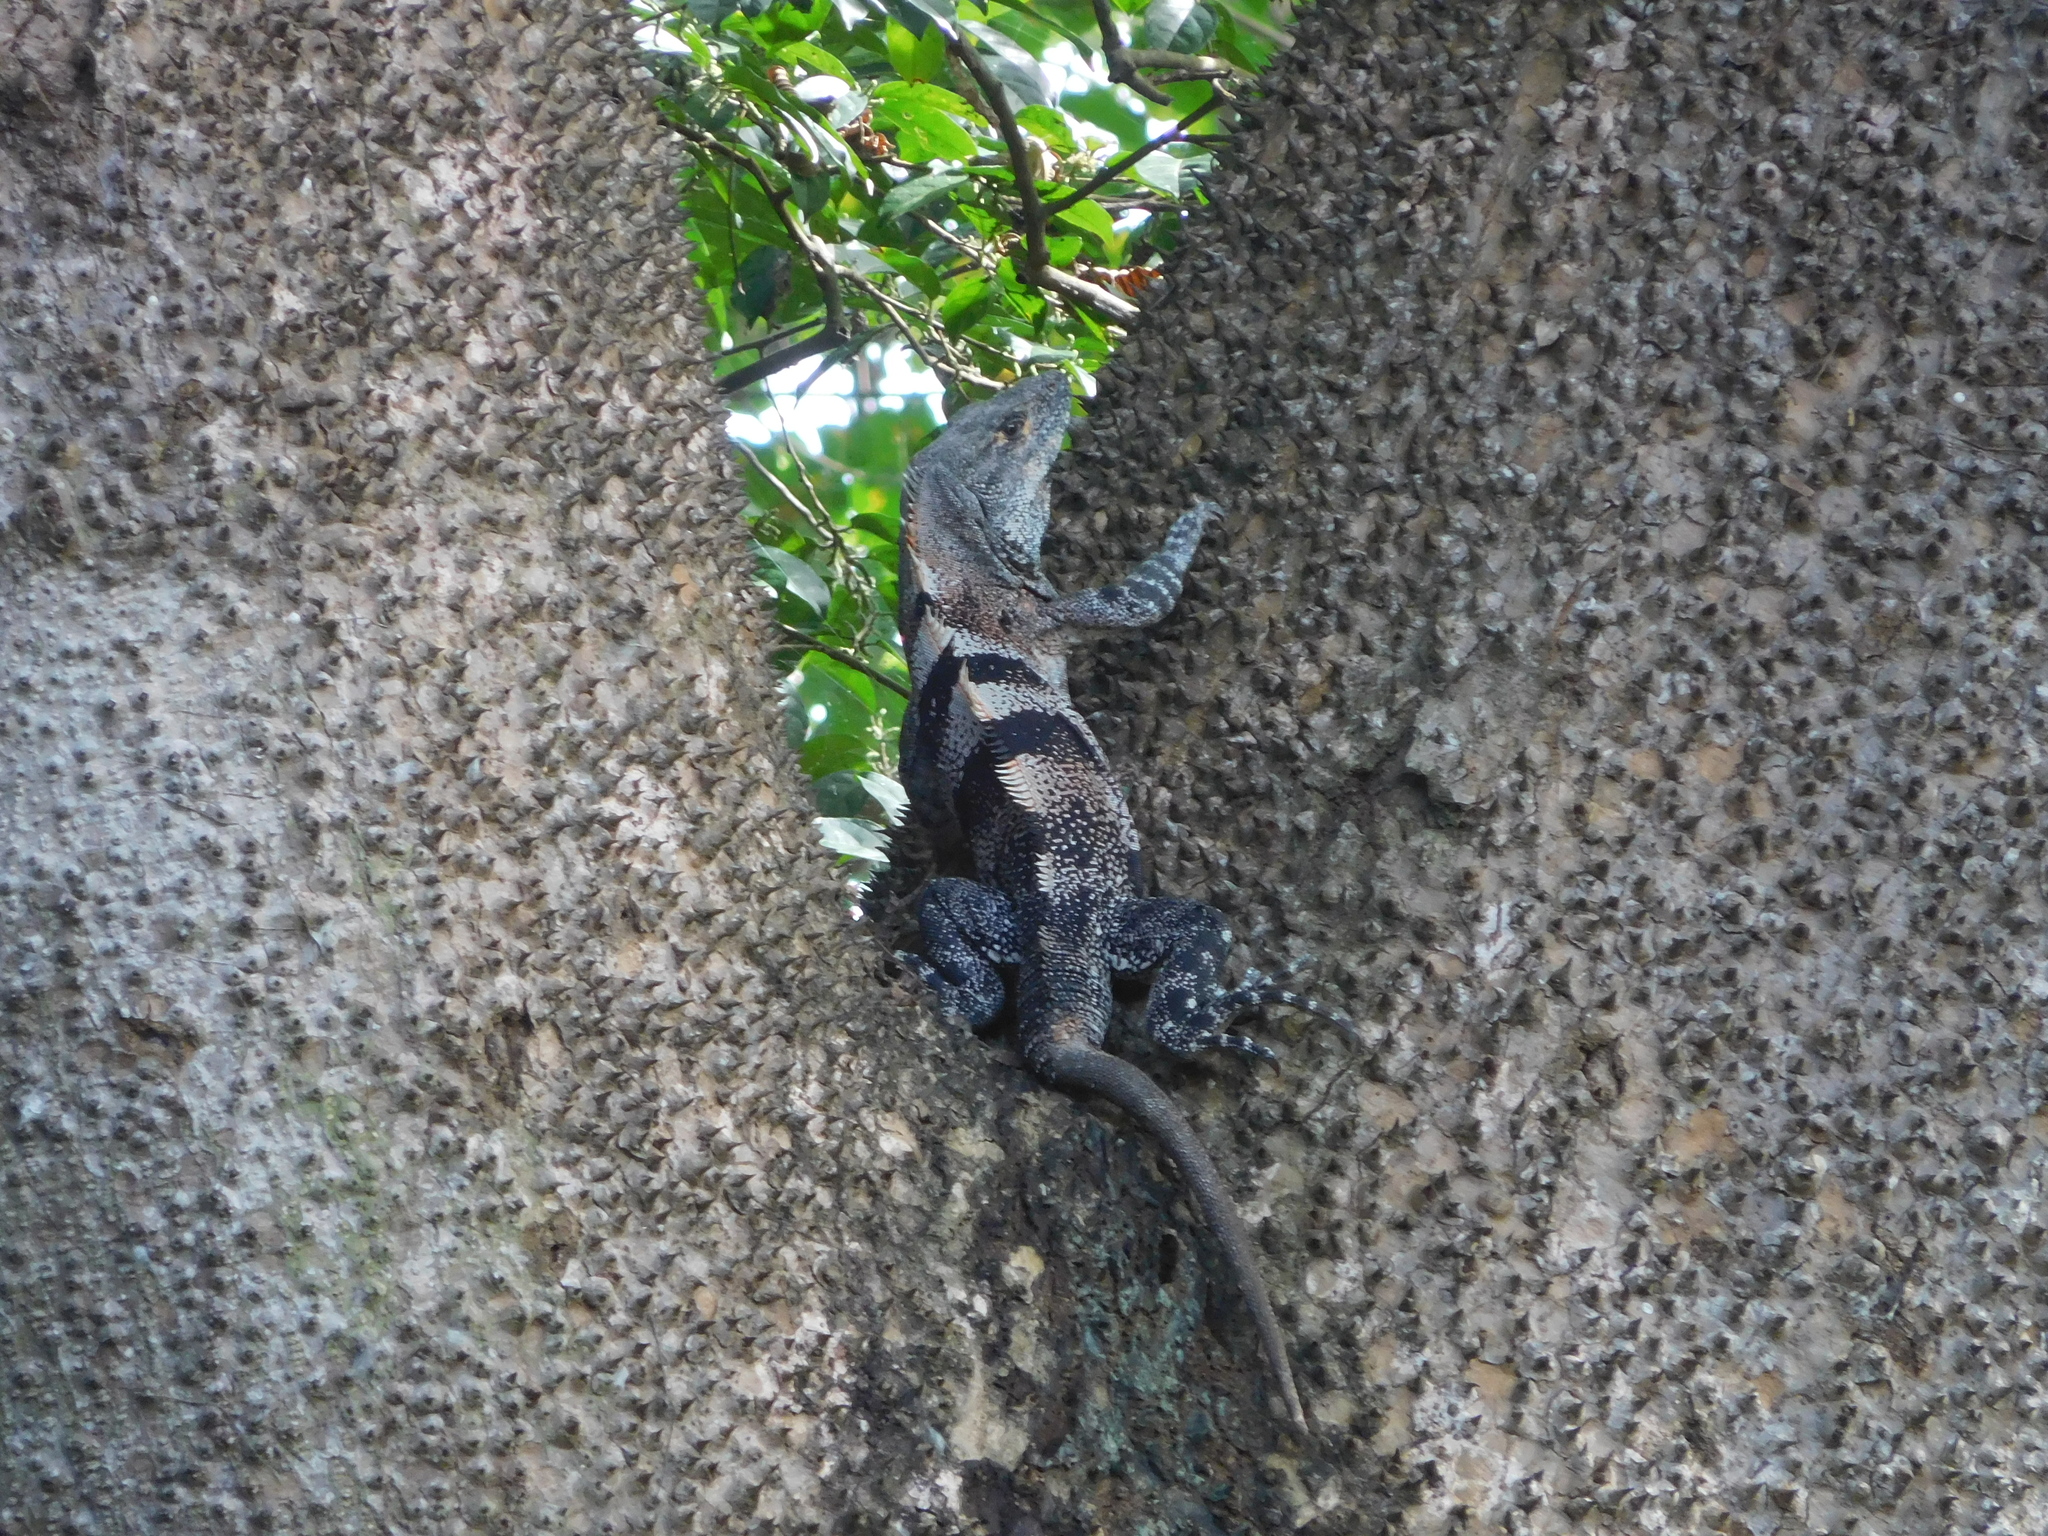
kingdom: Animalia
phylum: Chordata
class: Squamata
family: Iguanidae
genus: Ctenosaura
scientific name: Ctenosaura similis
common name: Black spiny-tailed iguana
